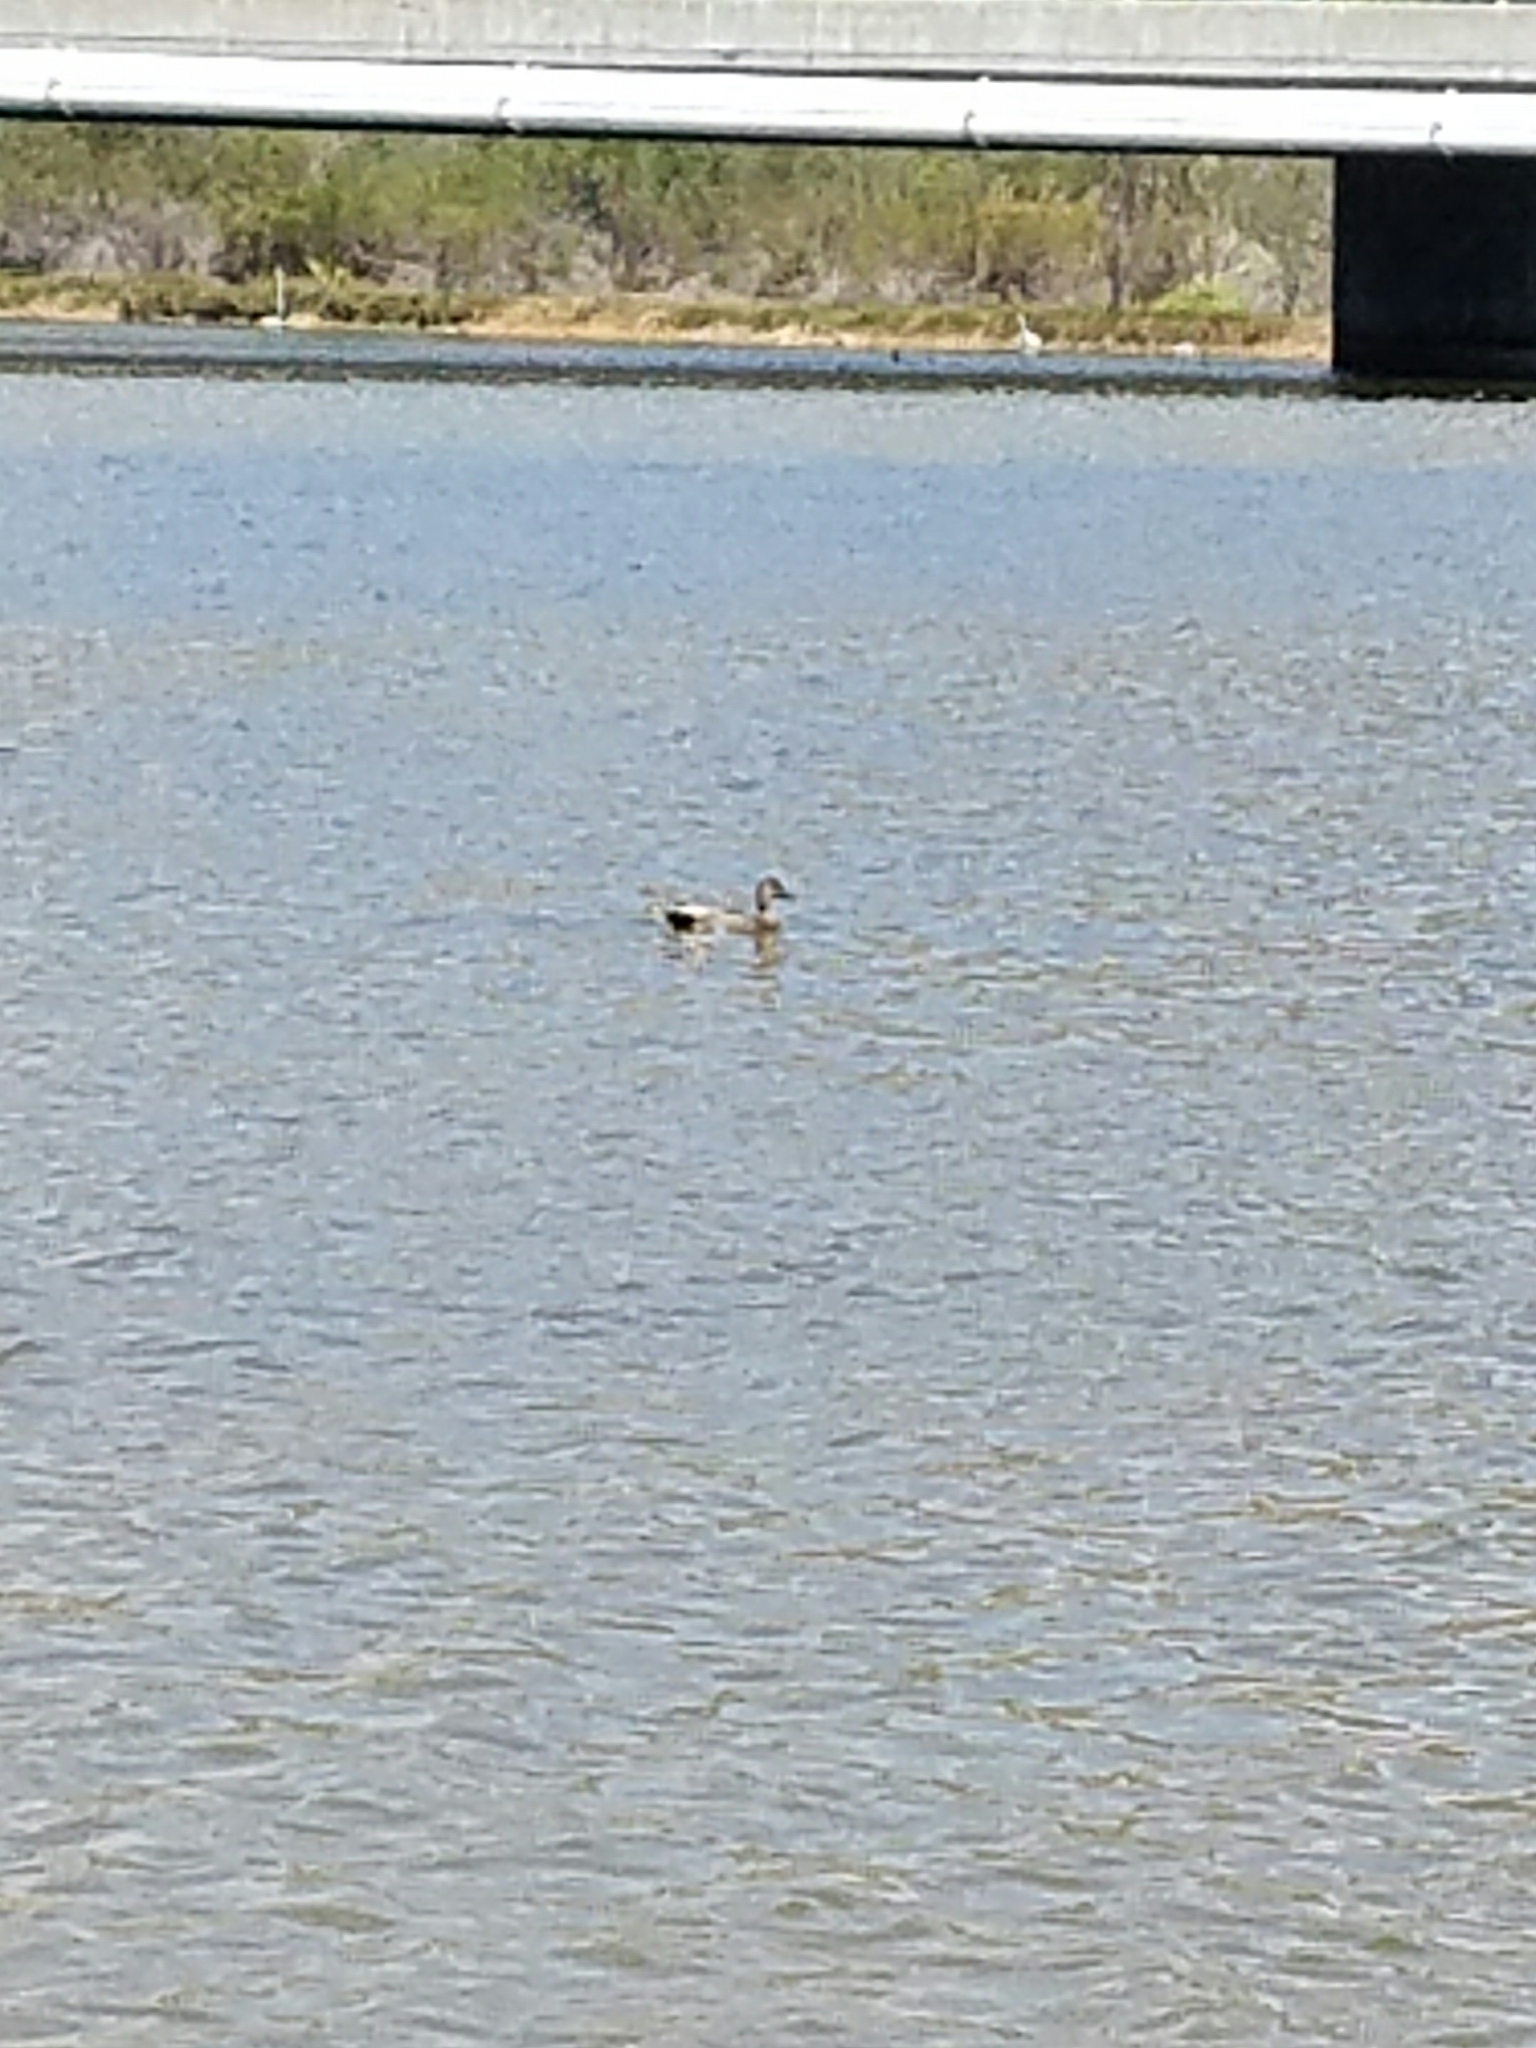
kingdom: Animalia
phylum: Chordata
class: Aves
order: Anseriformes
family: Anatidae
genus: Mareca
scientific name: Mareca strepera
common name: Gadwall
